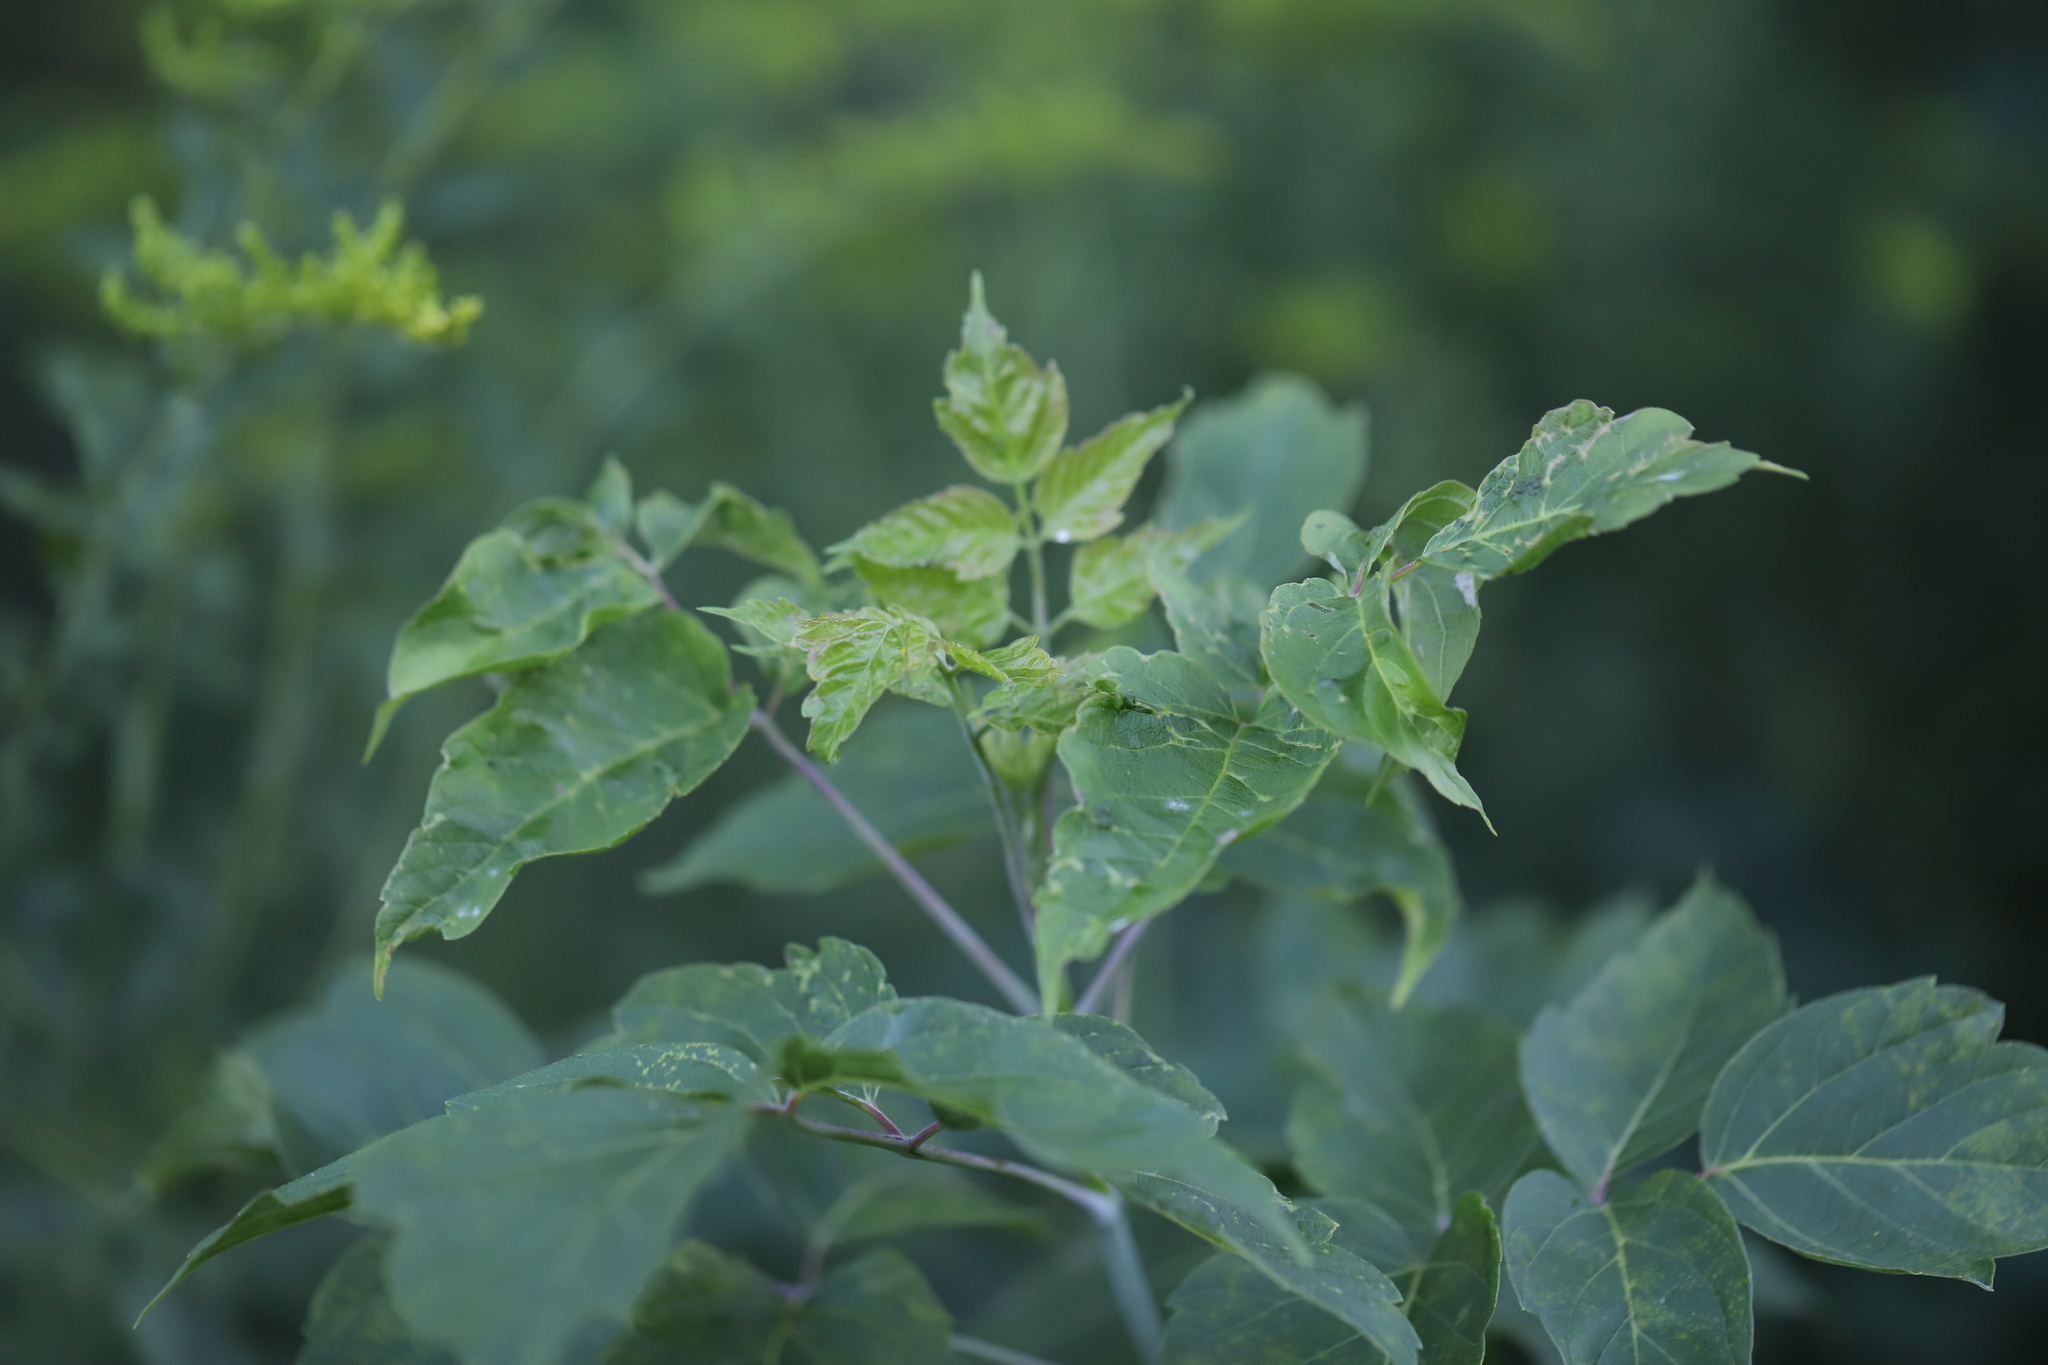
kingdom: Plantae
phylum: Tracheophyta
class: Magnoliopsida
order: Sapindales
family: Sapindaceae
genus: Acer
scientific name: Acer negundo
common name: Ashleaf maple
